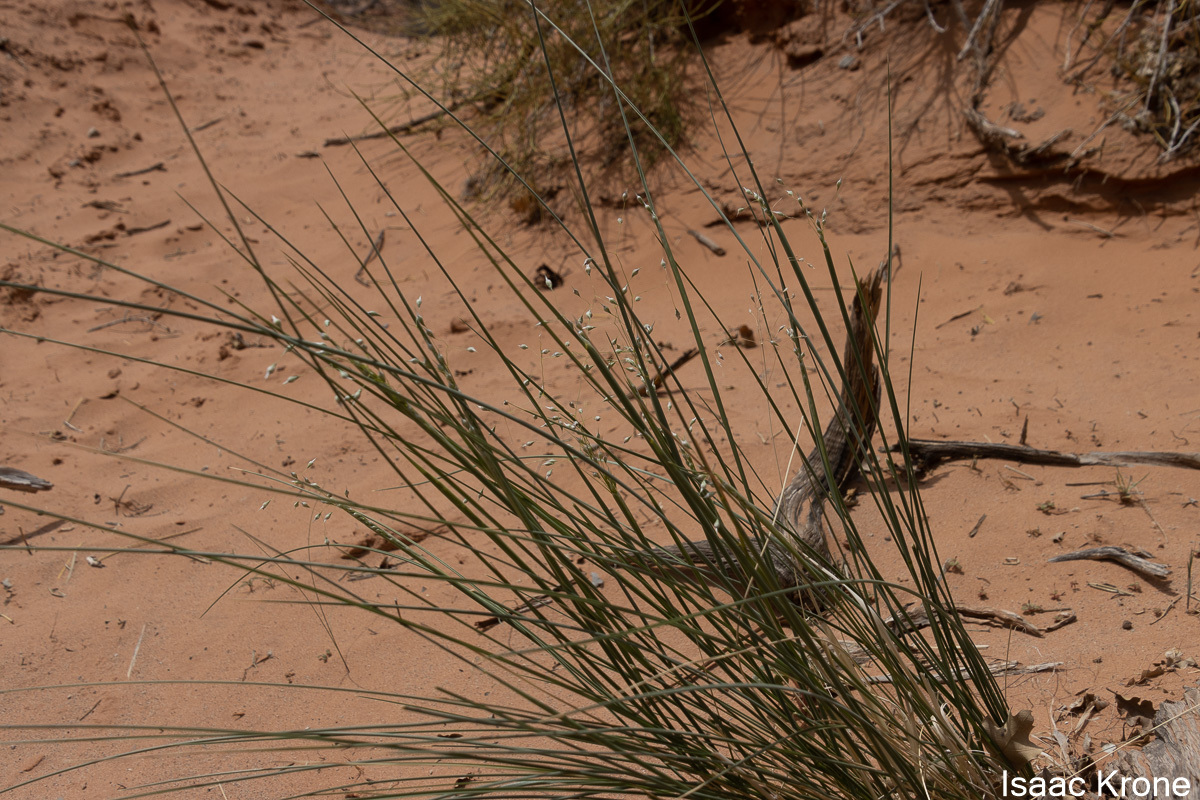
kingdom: Plantae
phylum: Tracheophyta
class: Liliopsida
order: Poales
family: Poaceae
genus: Eriocoma
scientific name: Eriocoma hymenoides
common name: Indian mountain ricegrass
